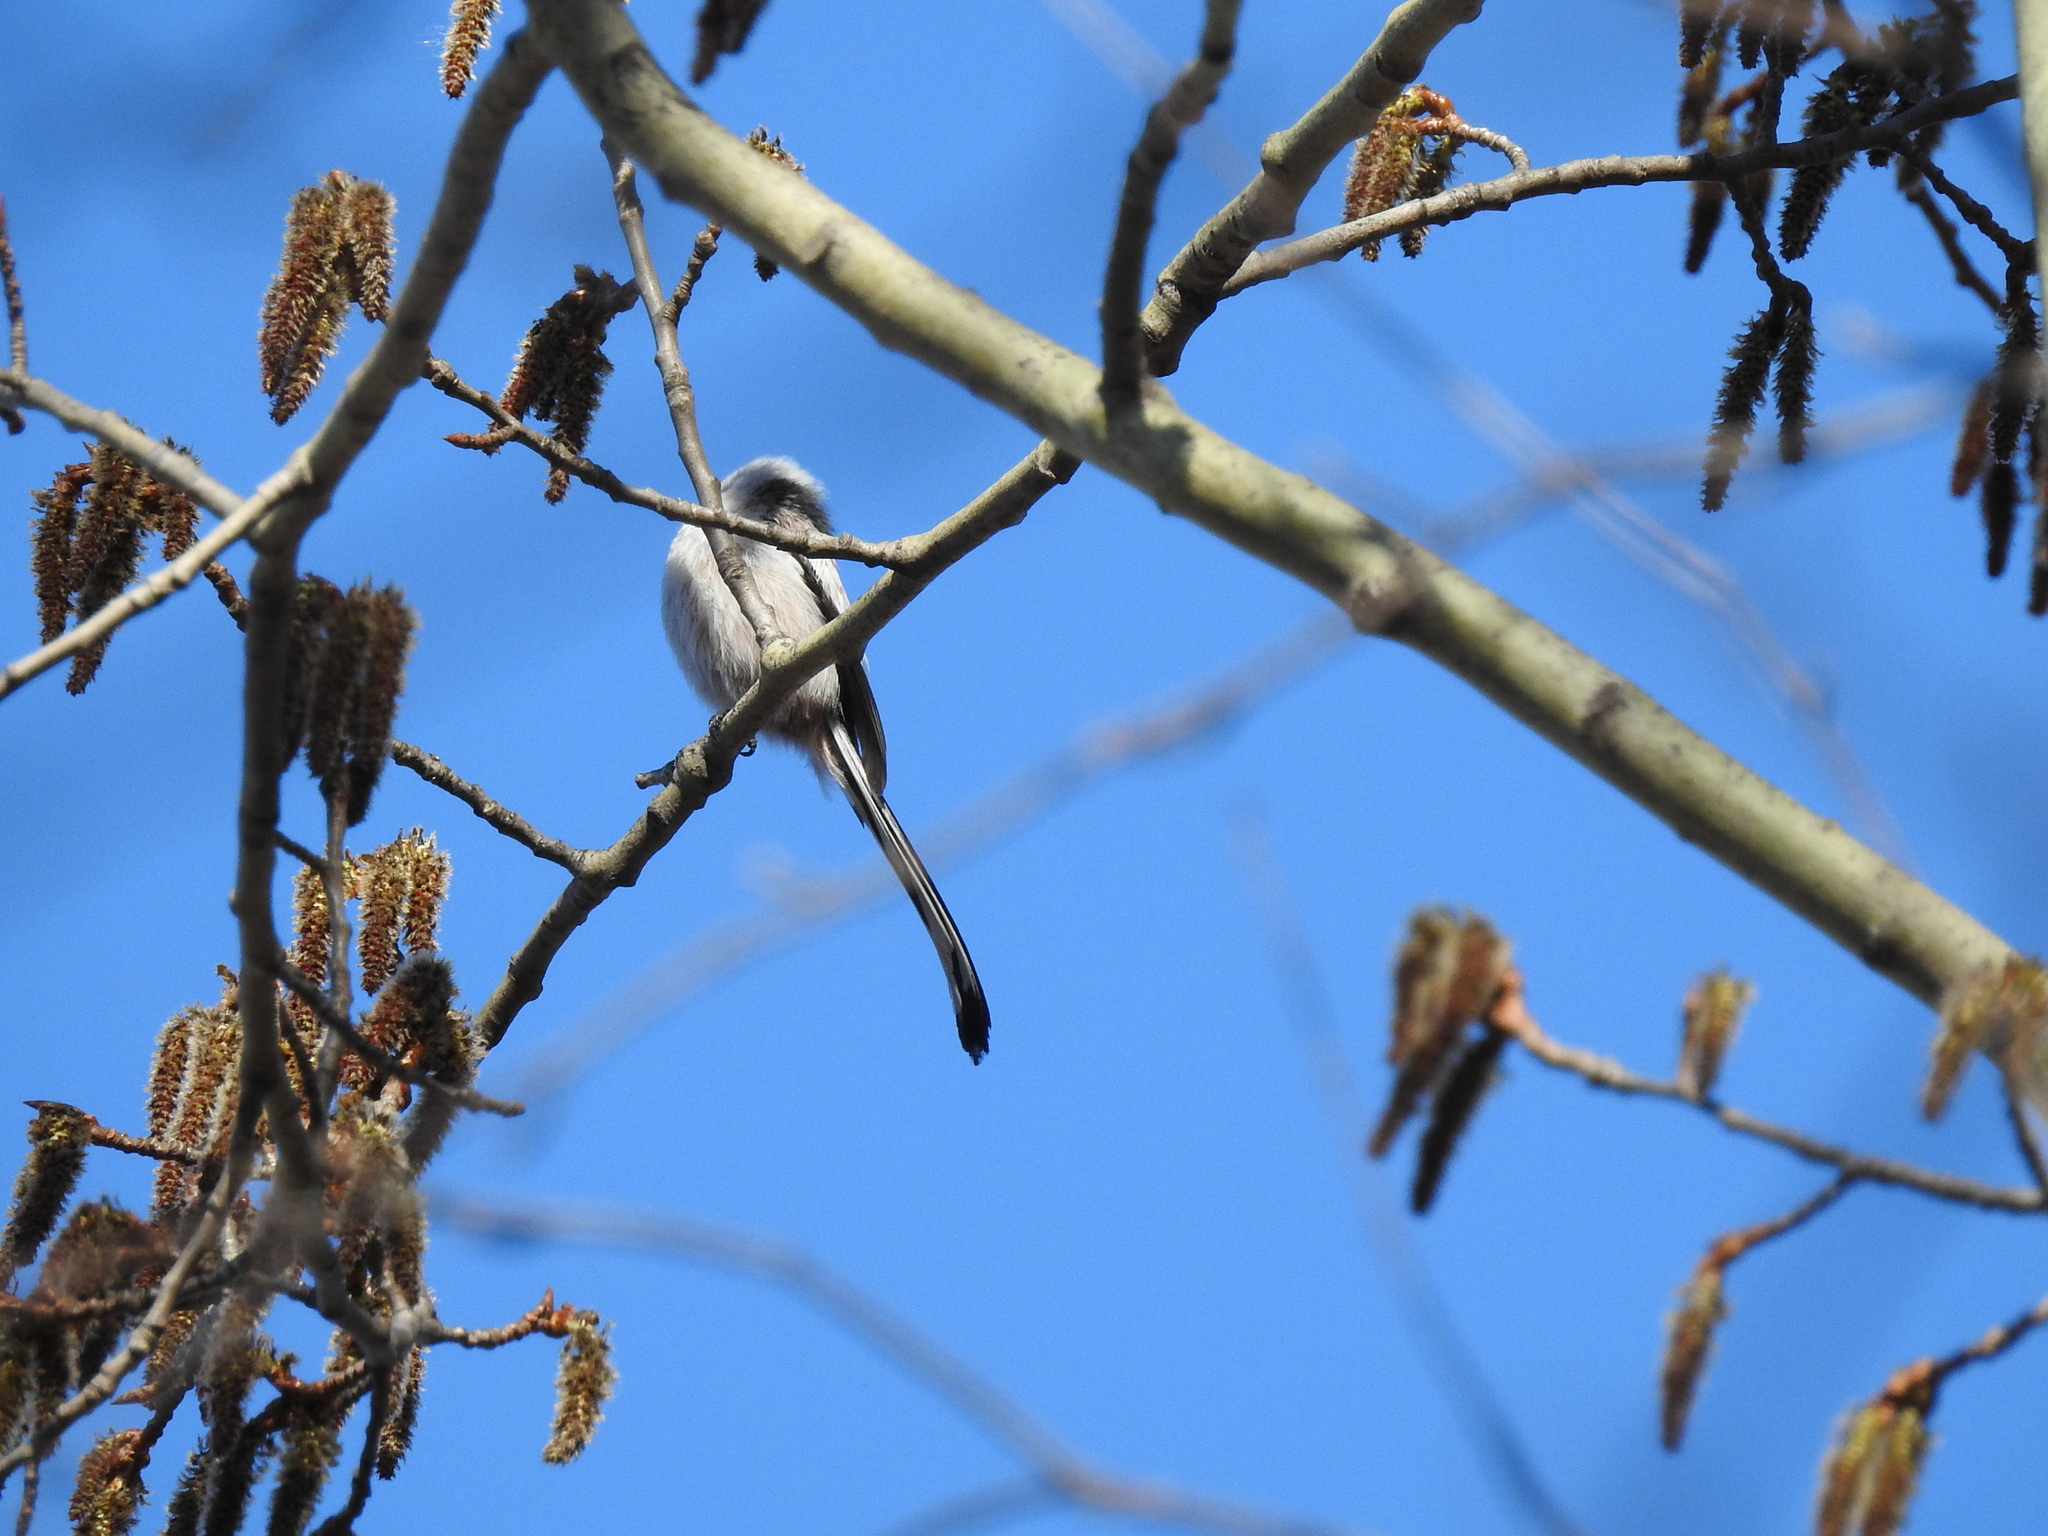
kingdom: Animalia
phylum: Chordata
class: Aves
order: Passeriformes
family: Aegithalidae
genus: Aegithalos
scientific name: Aegithalos caudatus
